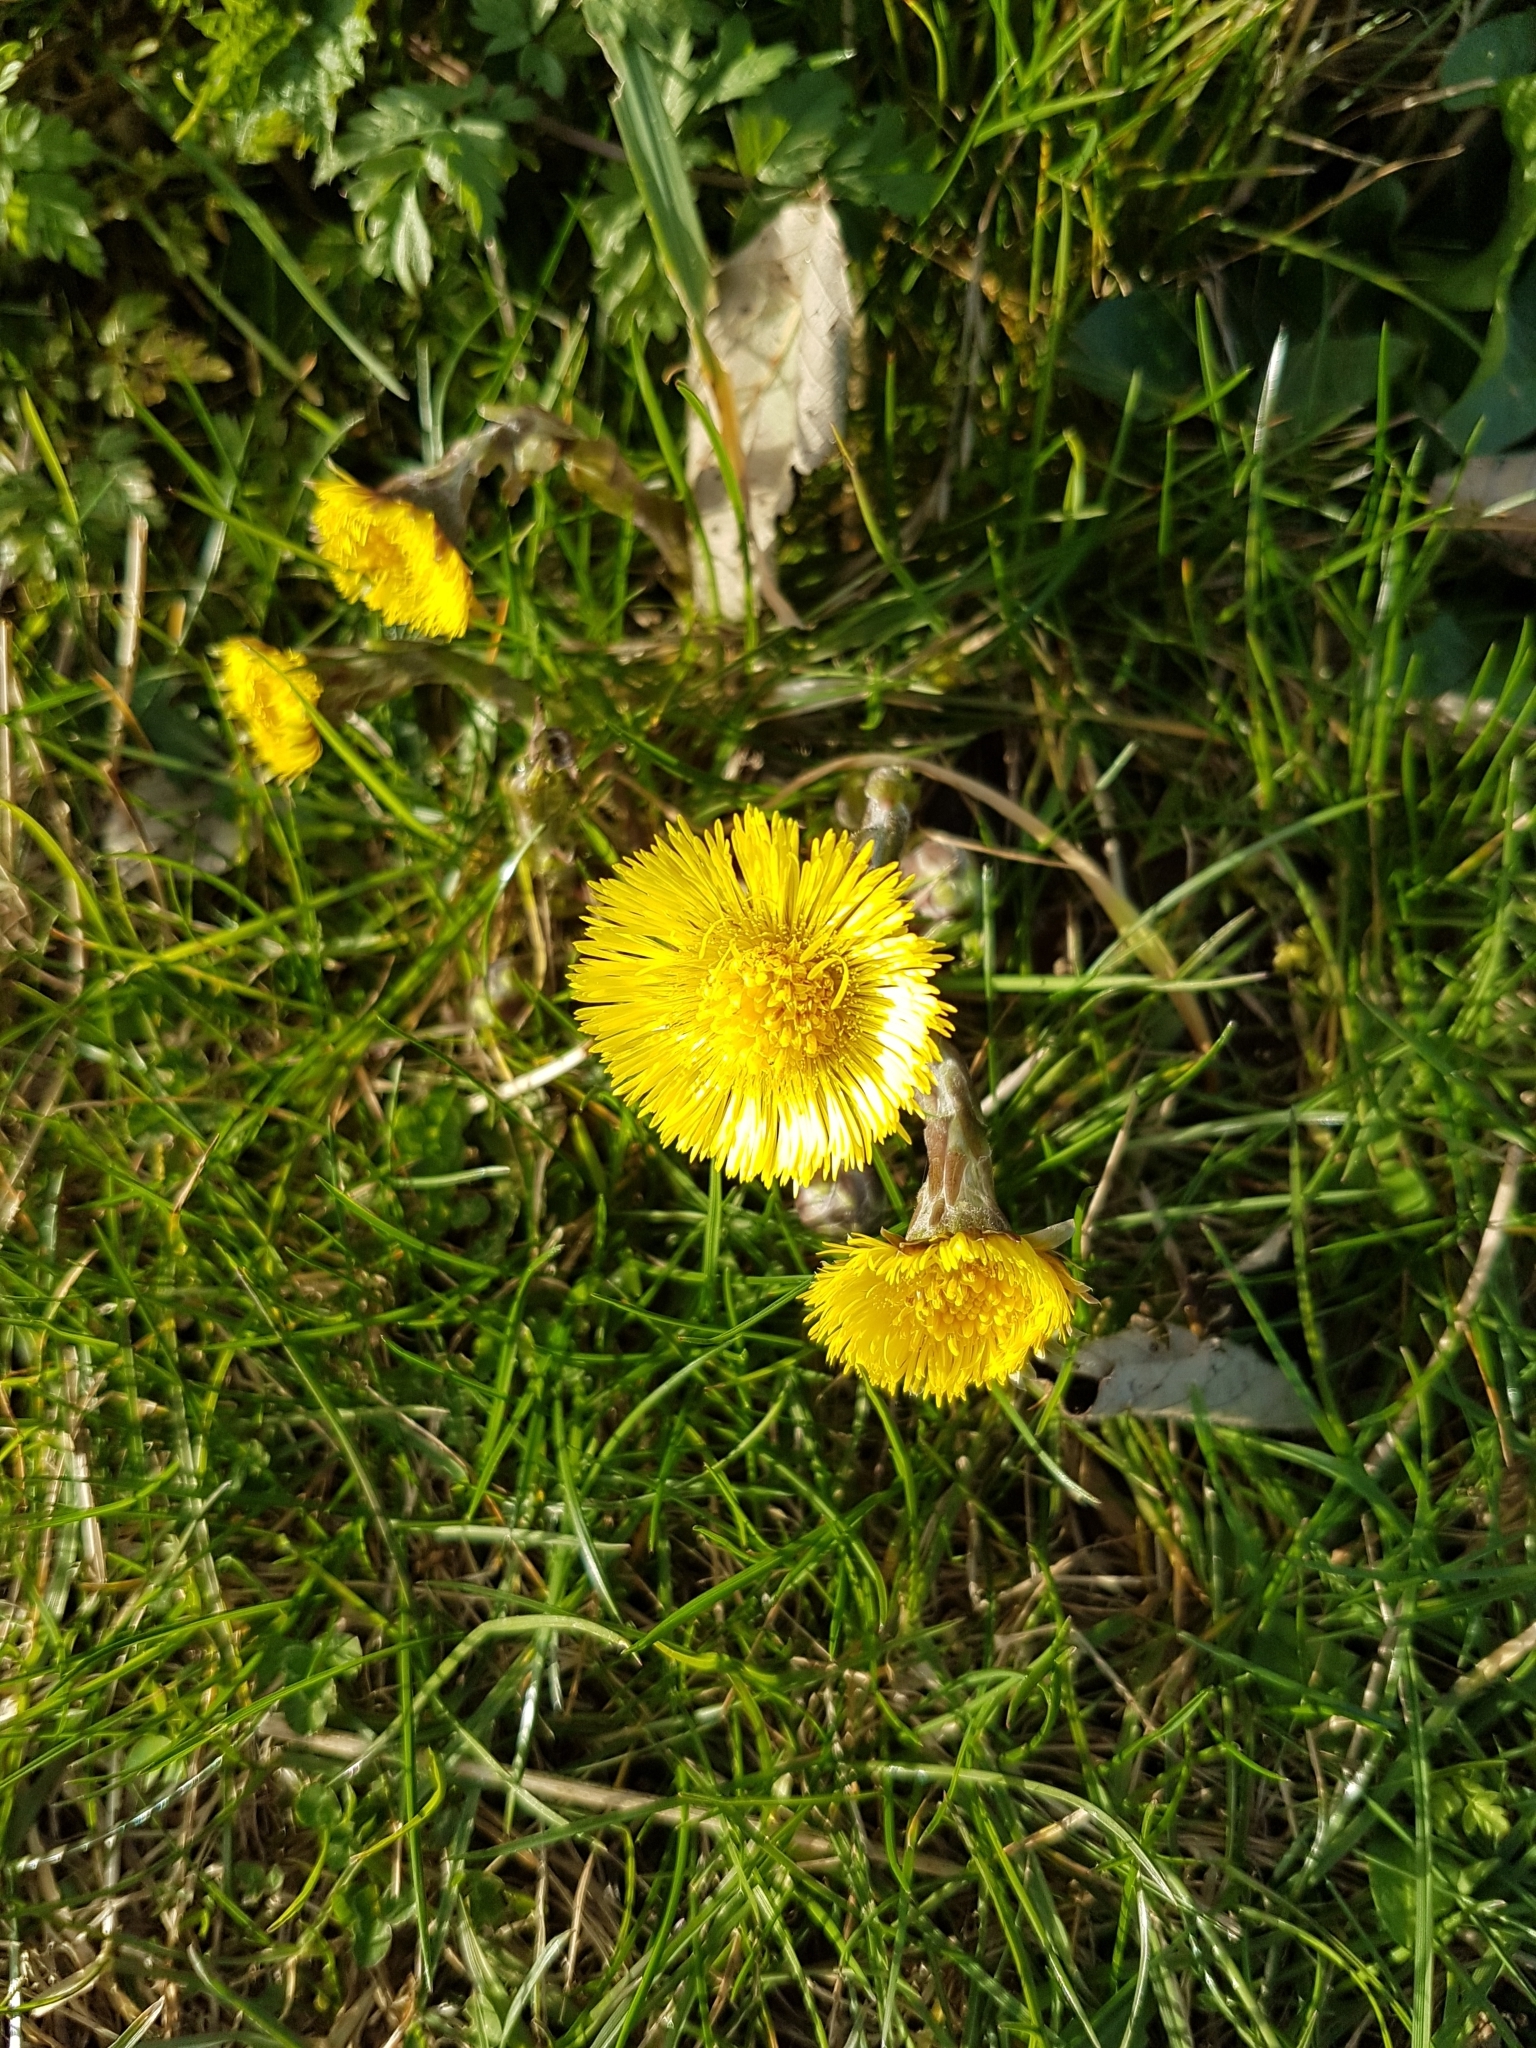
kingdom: Plantae
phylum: Tracheophyta
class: Magnoliopsida
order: Asterales
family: Asteraceae
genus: Tussilago
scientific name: Tussilago farfara
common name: Coltsfoot
